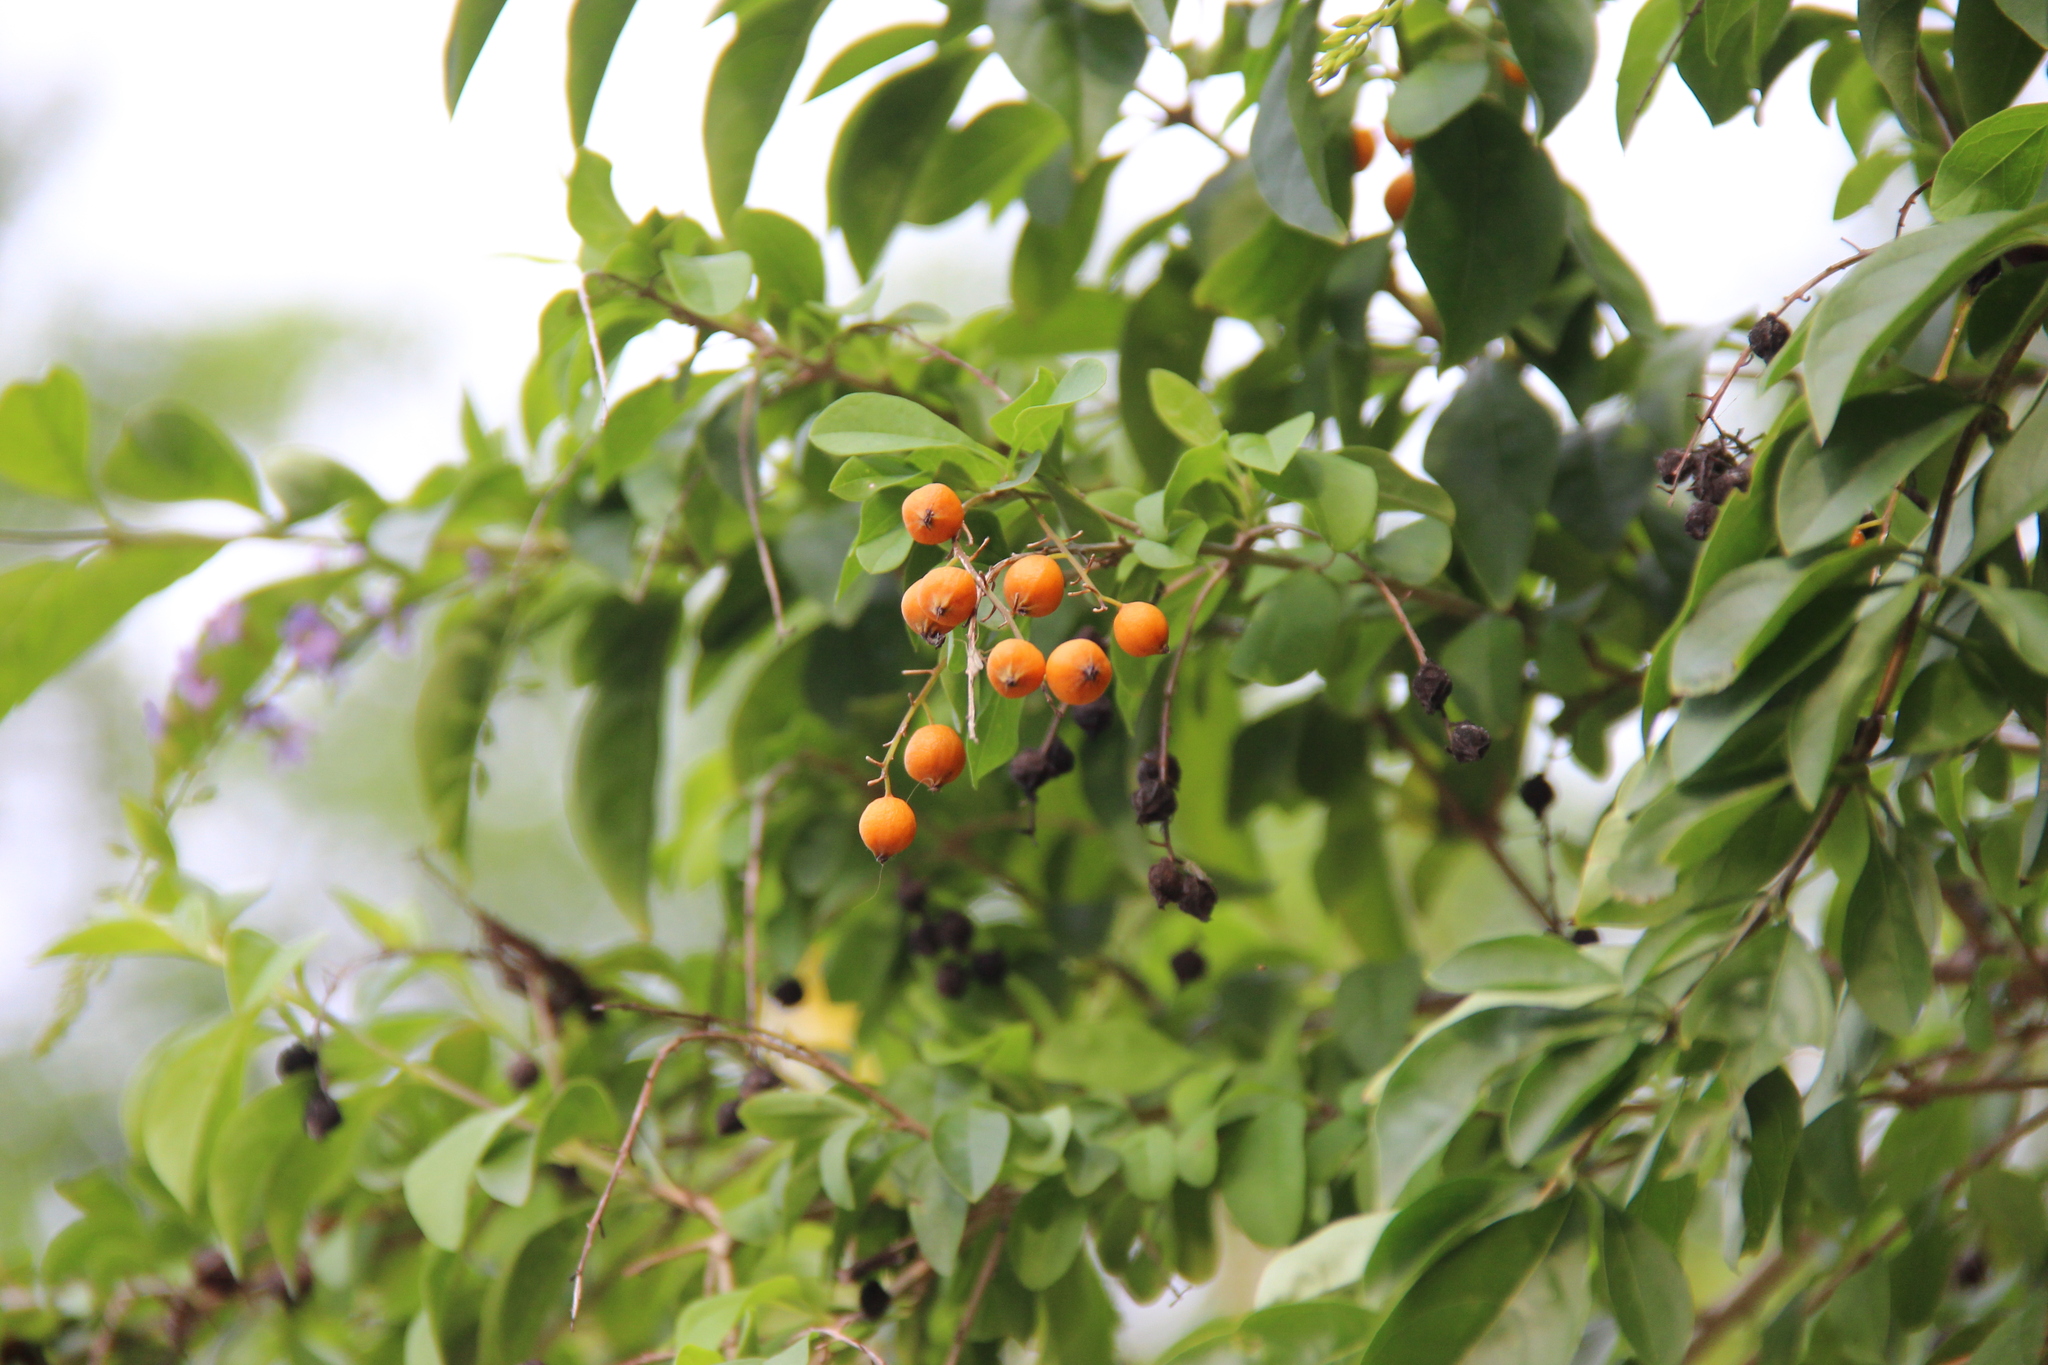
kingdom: Plantae
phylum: Tracheophyta
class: Magnoliopsida
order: Lamiales
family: Verbenaceae
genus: Duranta
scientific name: Duranta erecta
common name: Golden dewdrops
